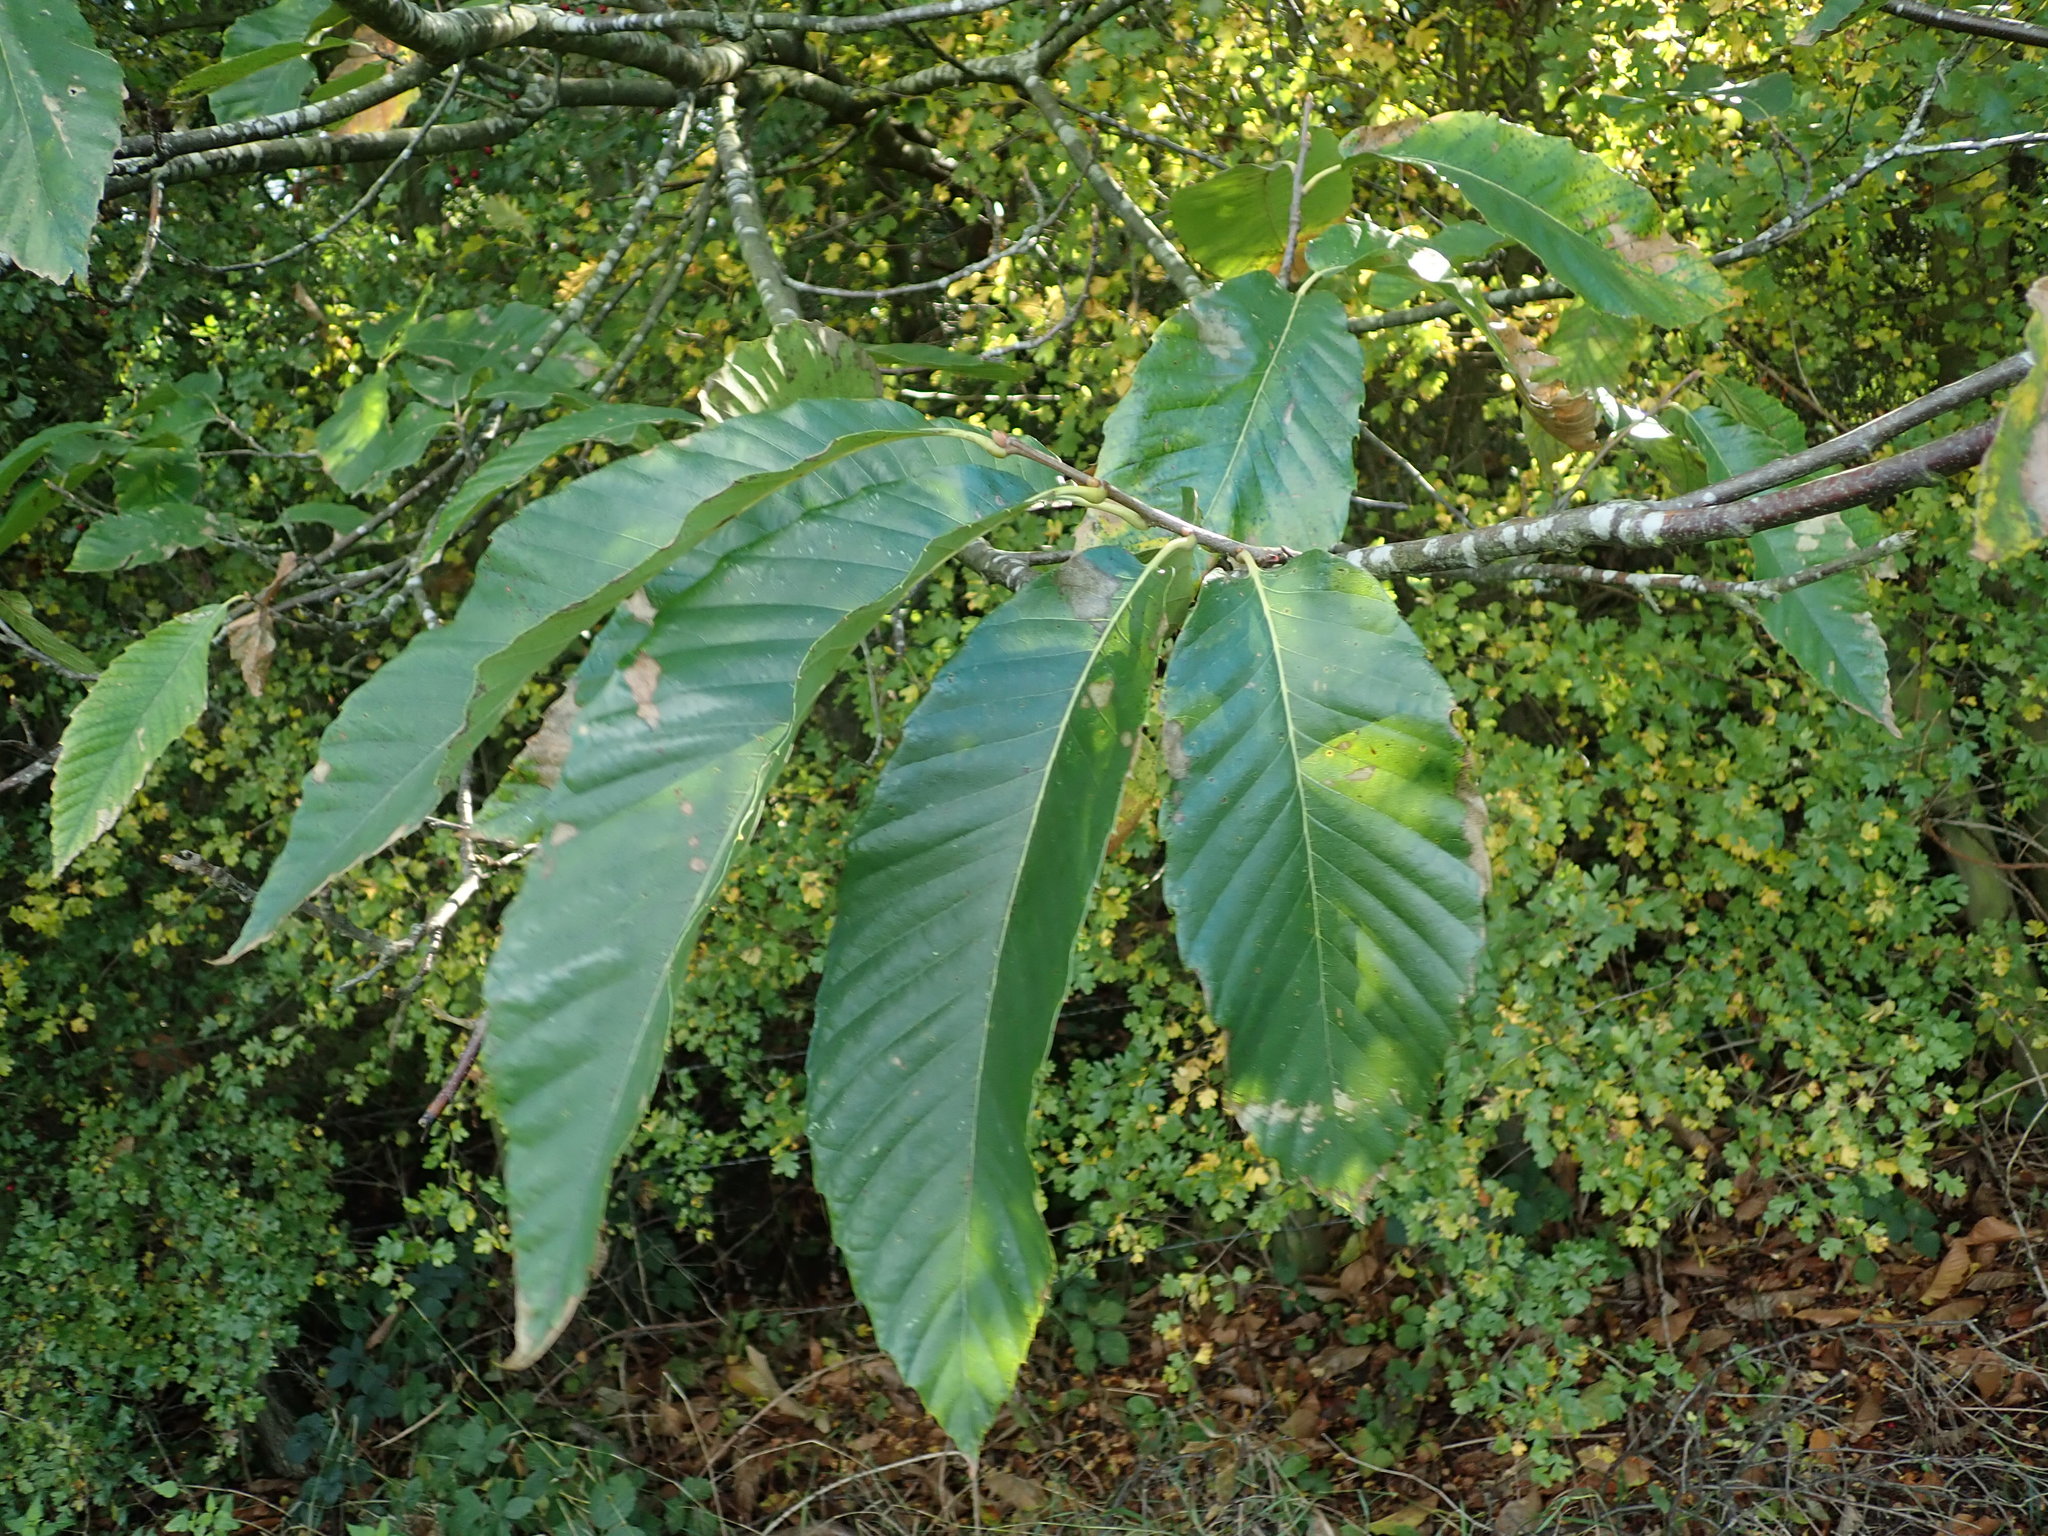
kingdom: Plantae
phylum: Tracheophyta
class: Magnoliopsida
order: Fagales
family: Fagaceae
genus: Castanea
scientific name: Castanea sativa
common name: Sweet chestnut
